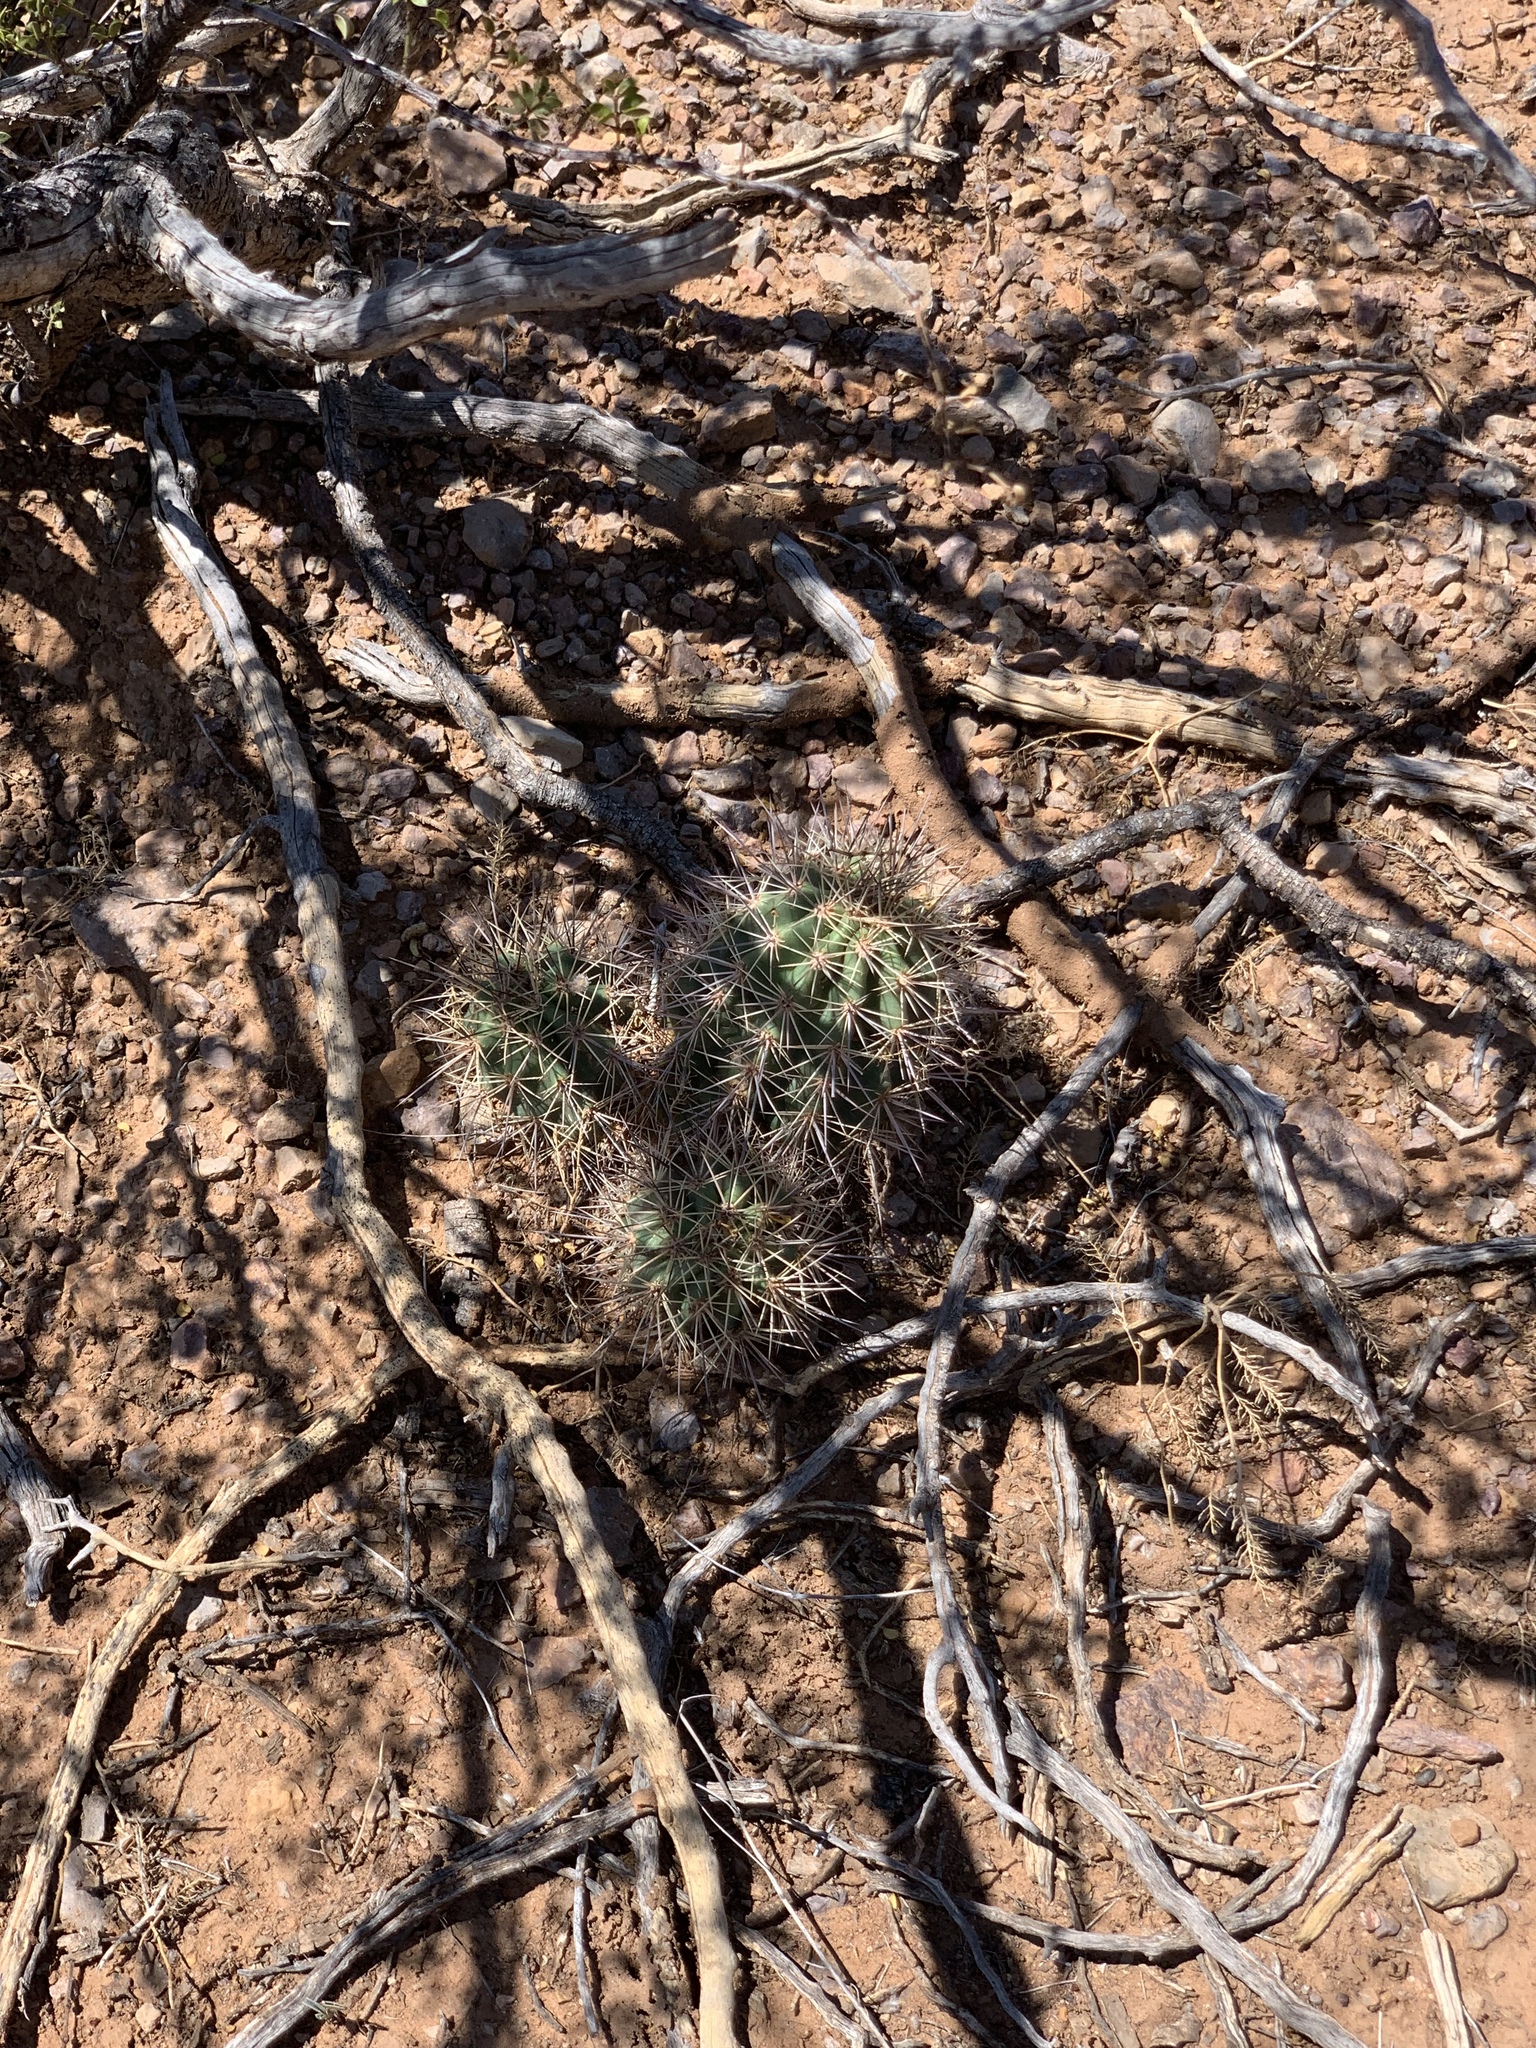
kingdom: Plantae
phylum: Tracheophyta
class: Magnoliopsida
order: Caryophyllales
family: Cactaceae
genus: Echinocereus
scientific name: Echinocereus coccineus
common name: Scarlet hedgehog cactus
